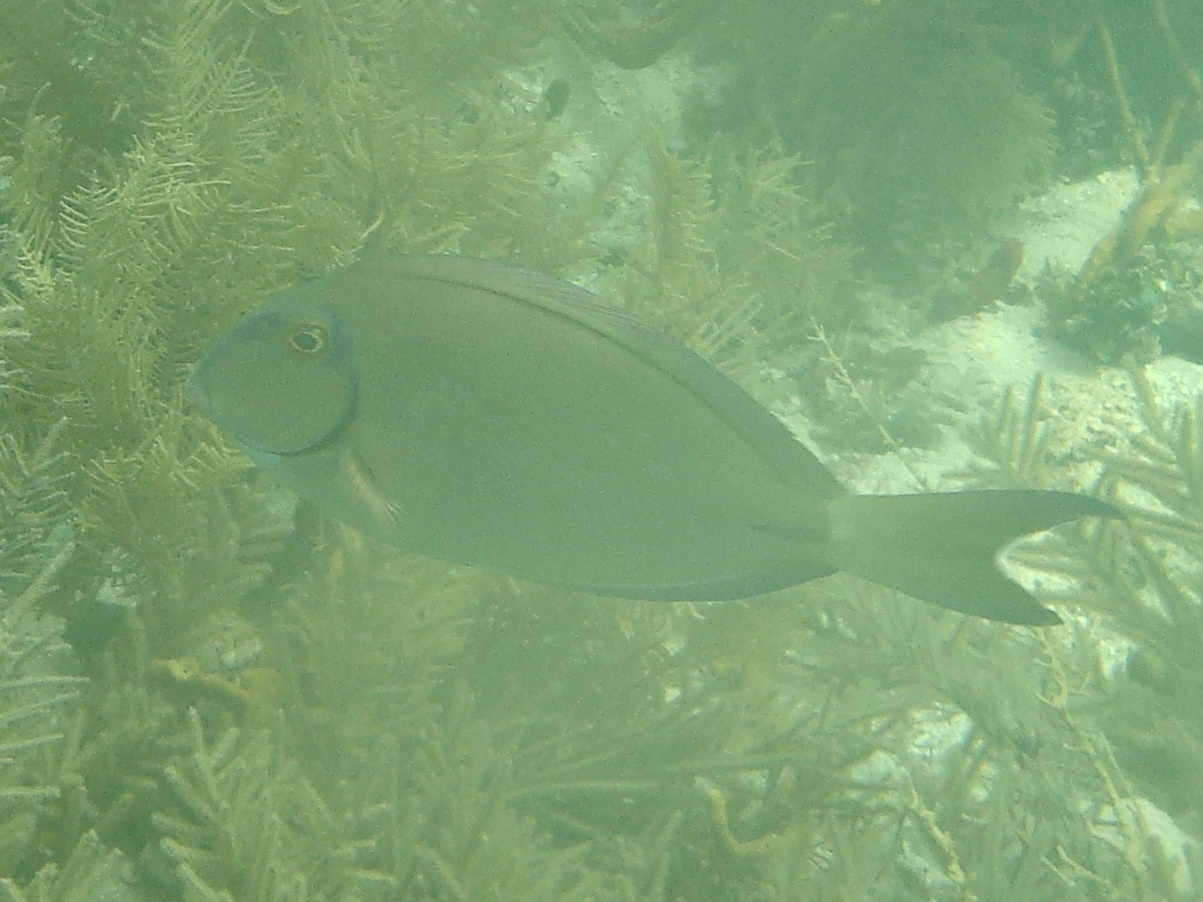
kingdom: Animalia
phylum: Chordata
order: Perciformes
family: Acanthuridae
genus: Acanthurus
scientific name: Acanthurus bahianus
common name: Ocean surgeon
